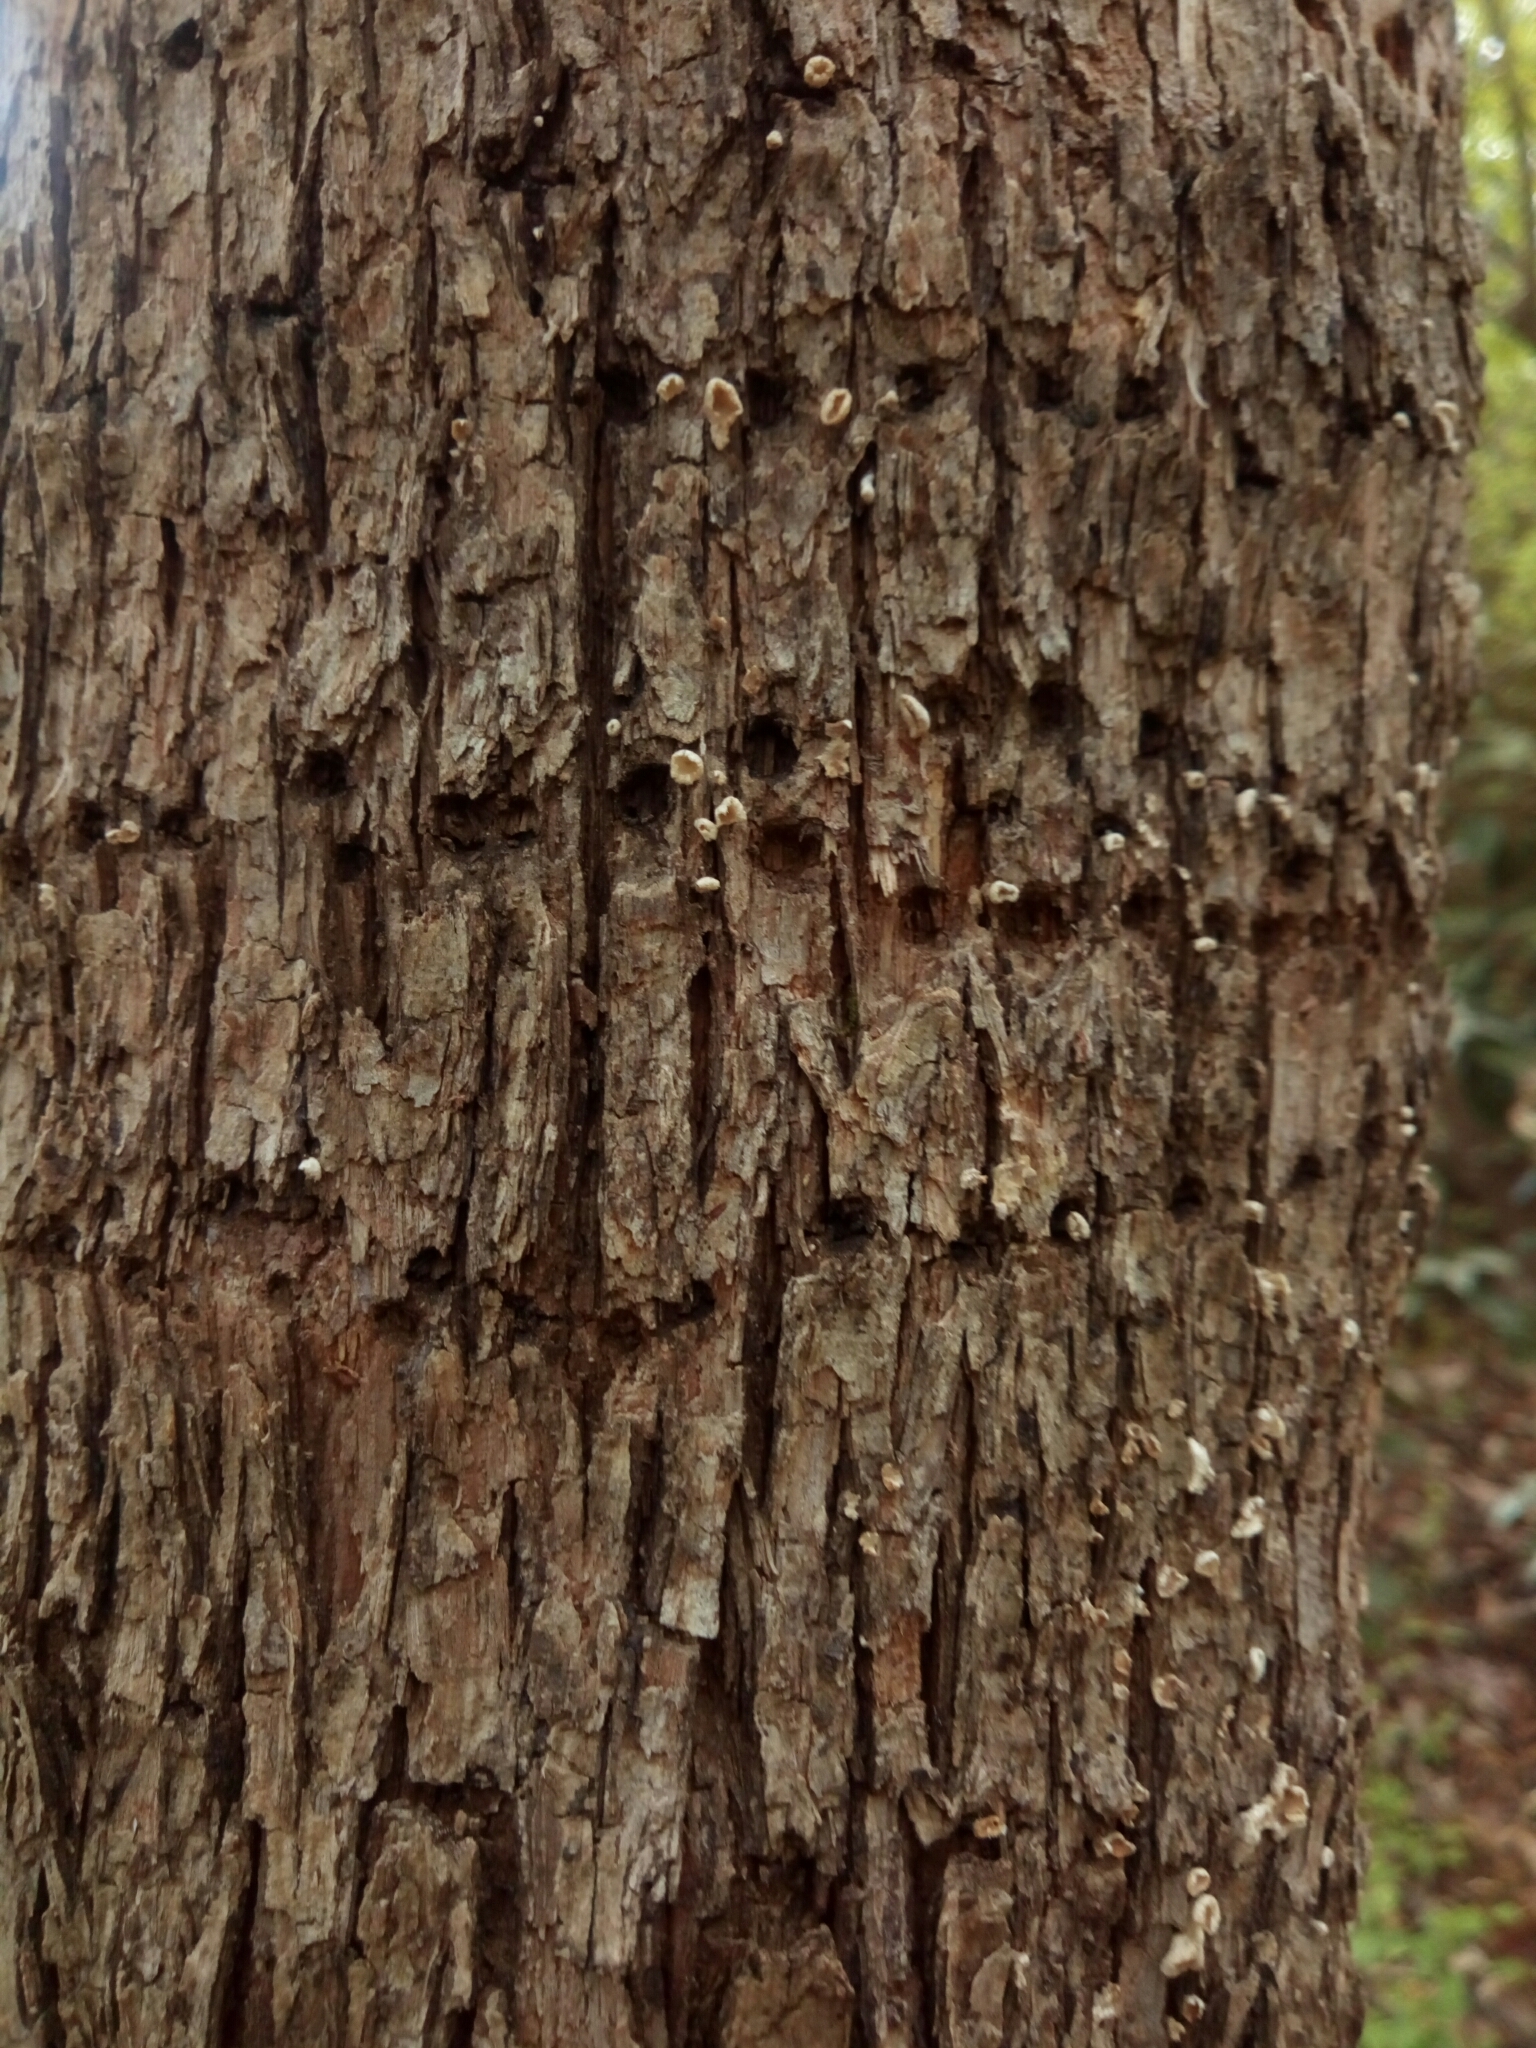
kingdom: Animalia
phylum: Chordata
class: Aves
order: Piciformes
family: Picidae
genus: Sphyrapicus
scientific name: Sphyrapicus varius
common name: Yellow-bellied sapsucker
